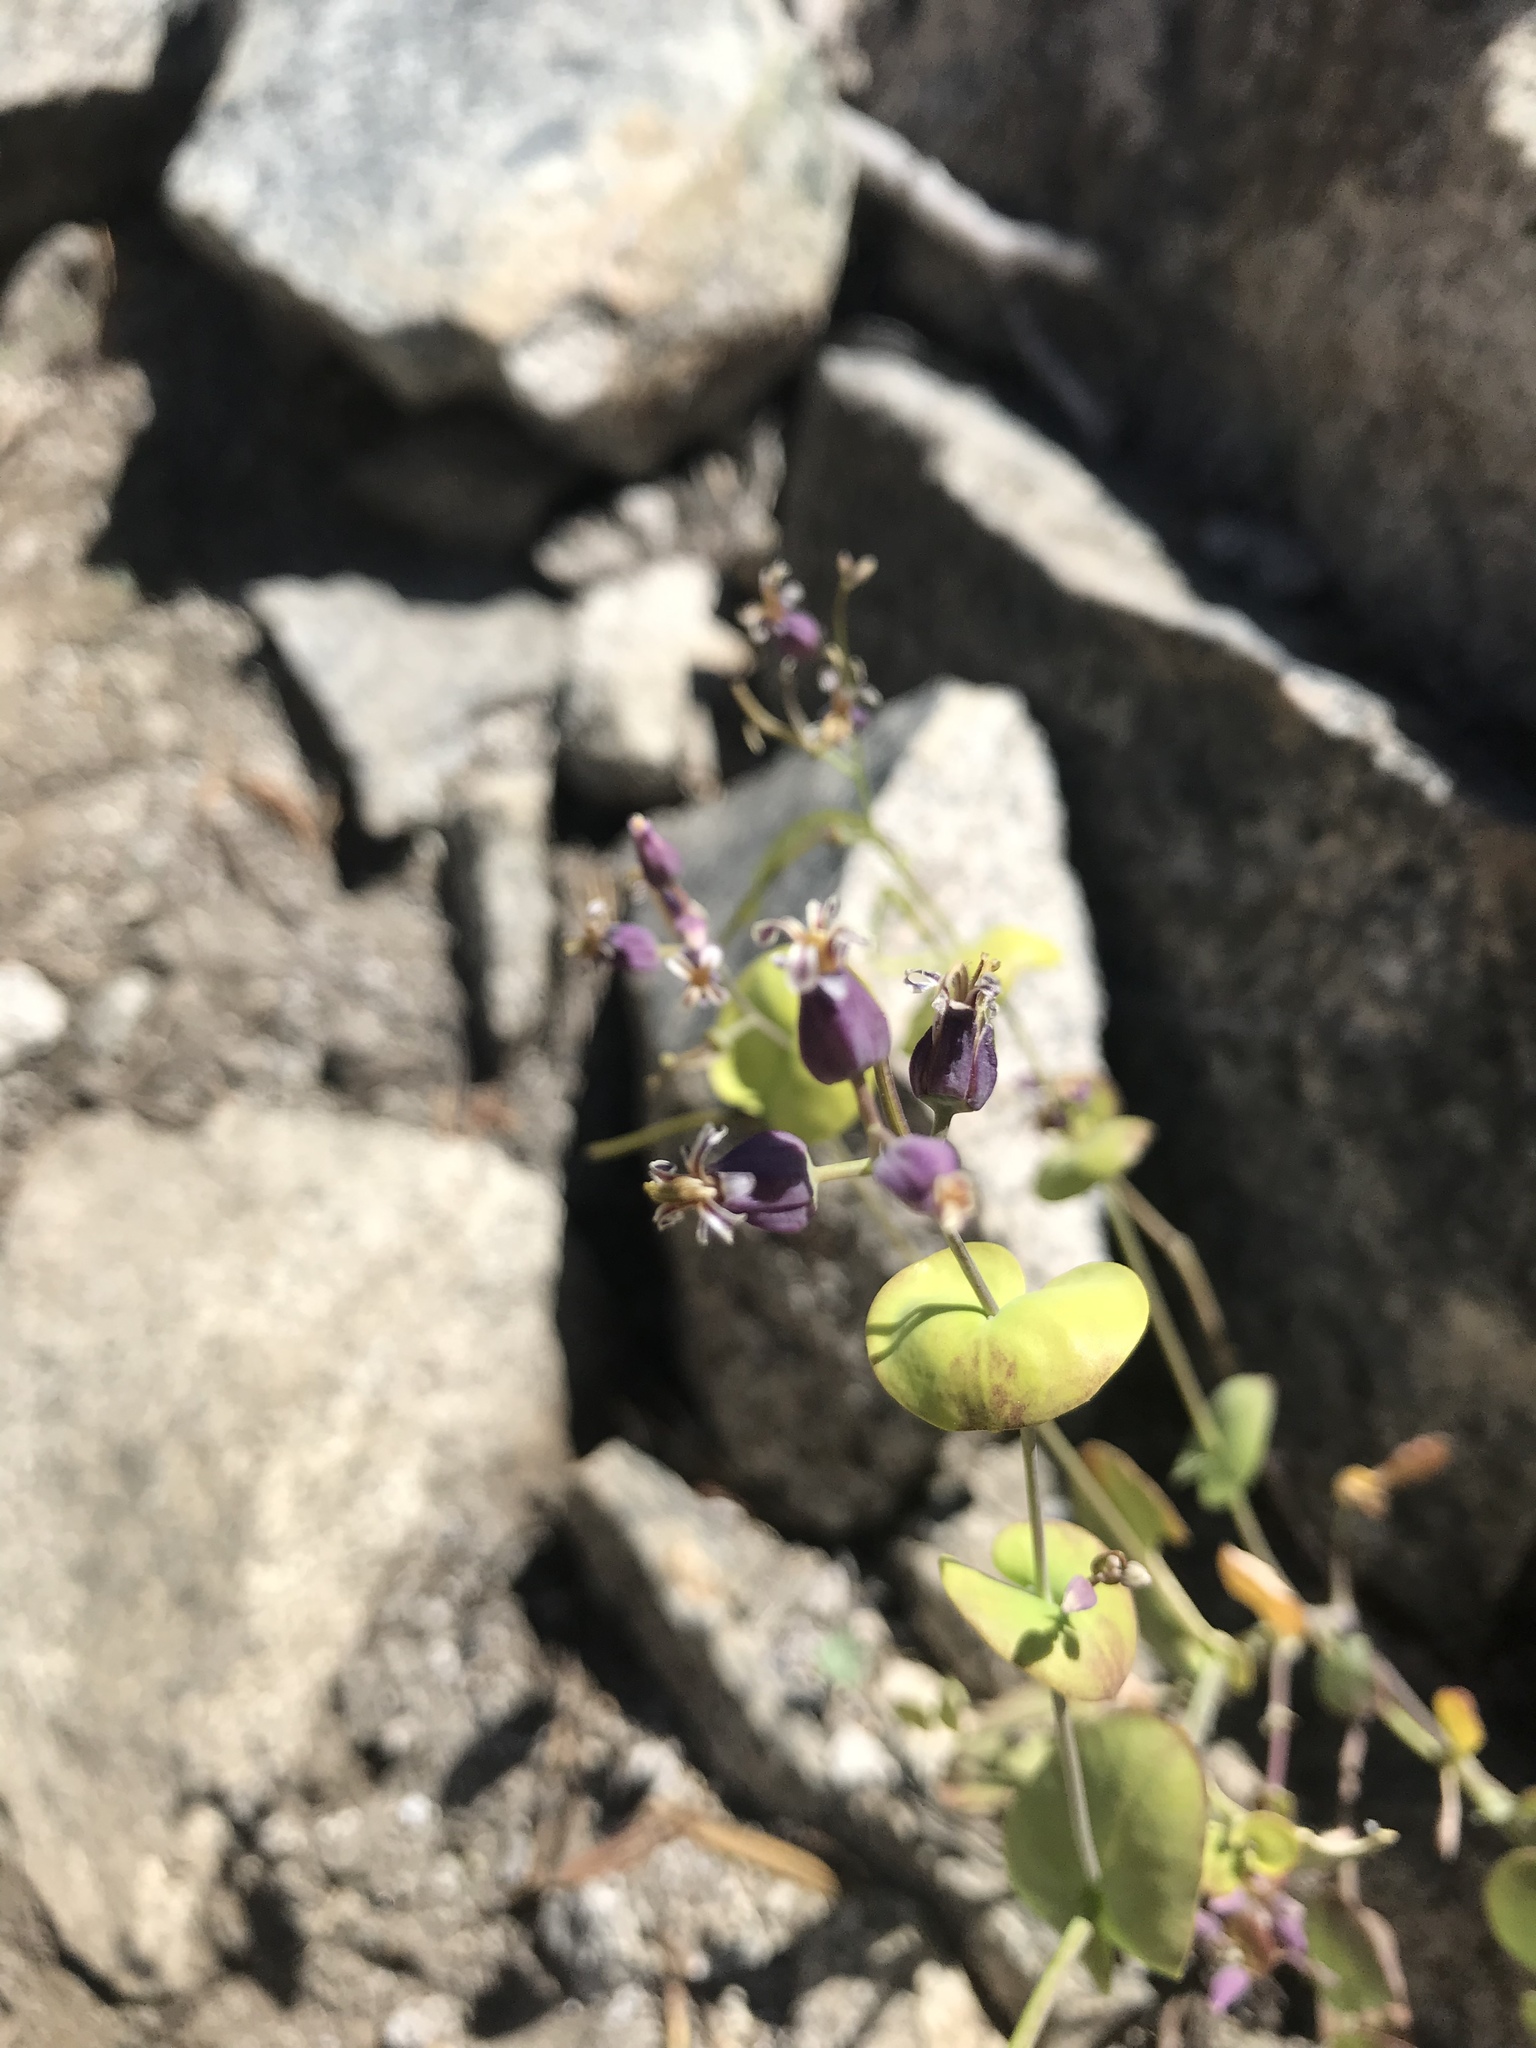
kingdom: Plantae
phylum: Tracheophyta
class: Magnoliopsida
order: Brassicales
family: Brassicaceae
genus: Streptanthus
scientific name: Streptanthus tortuosus
